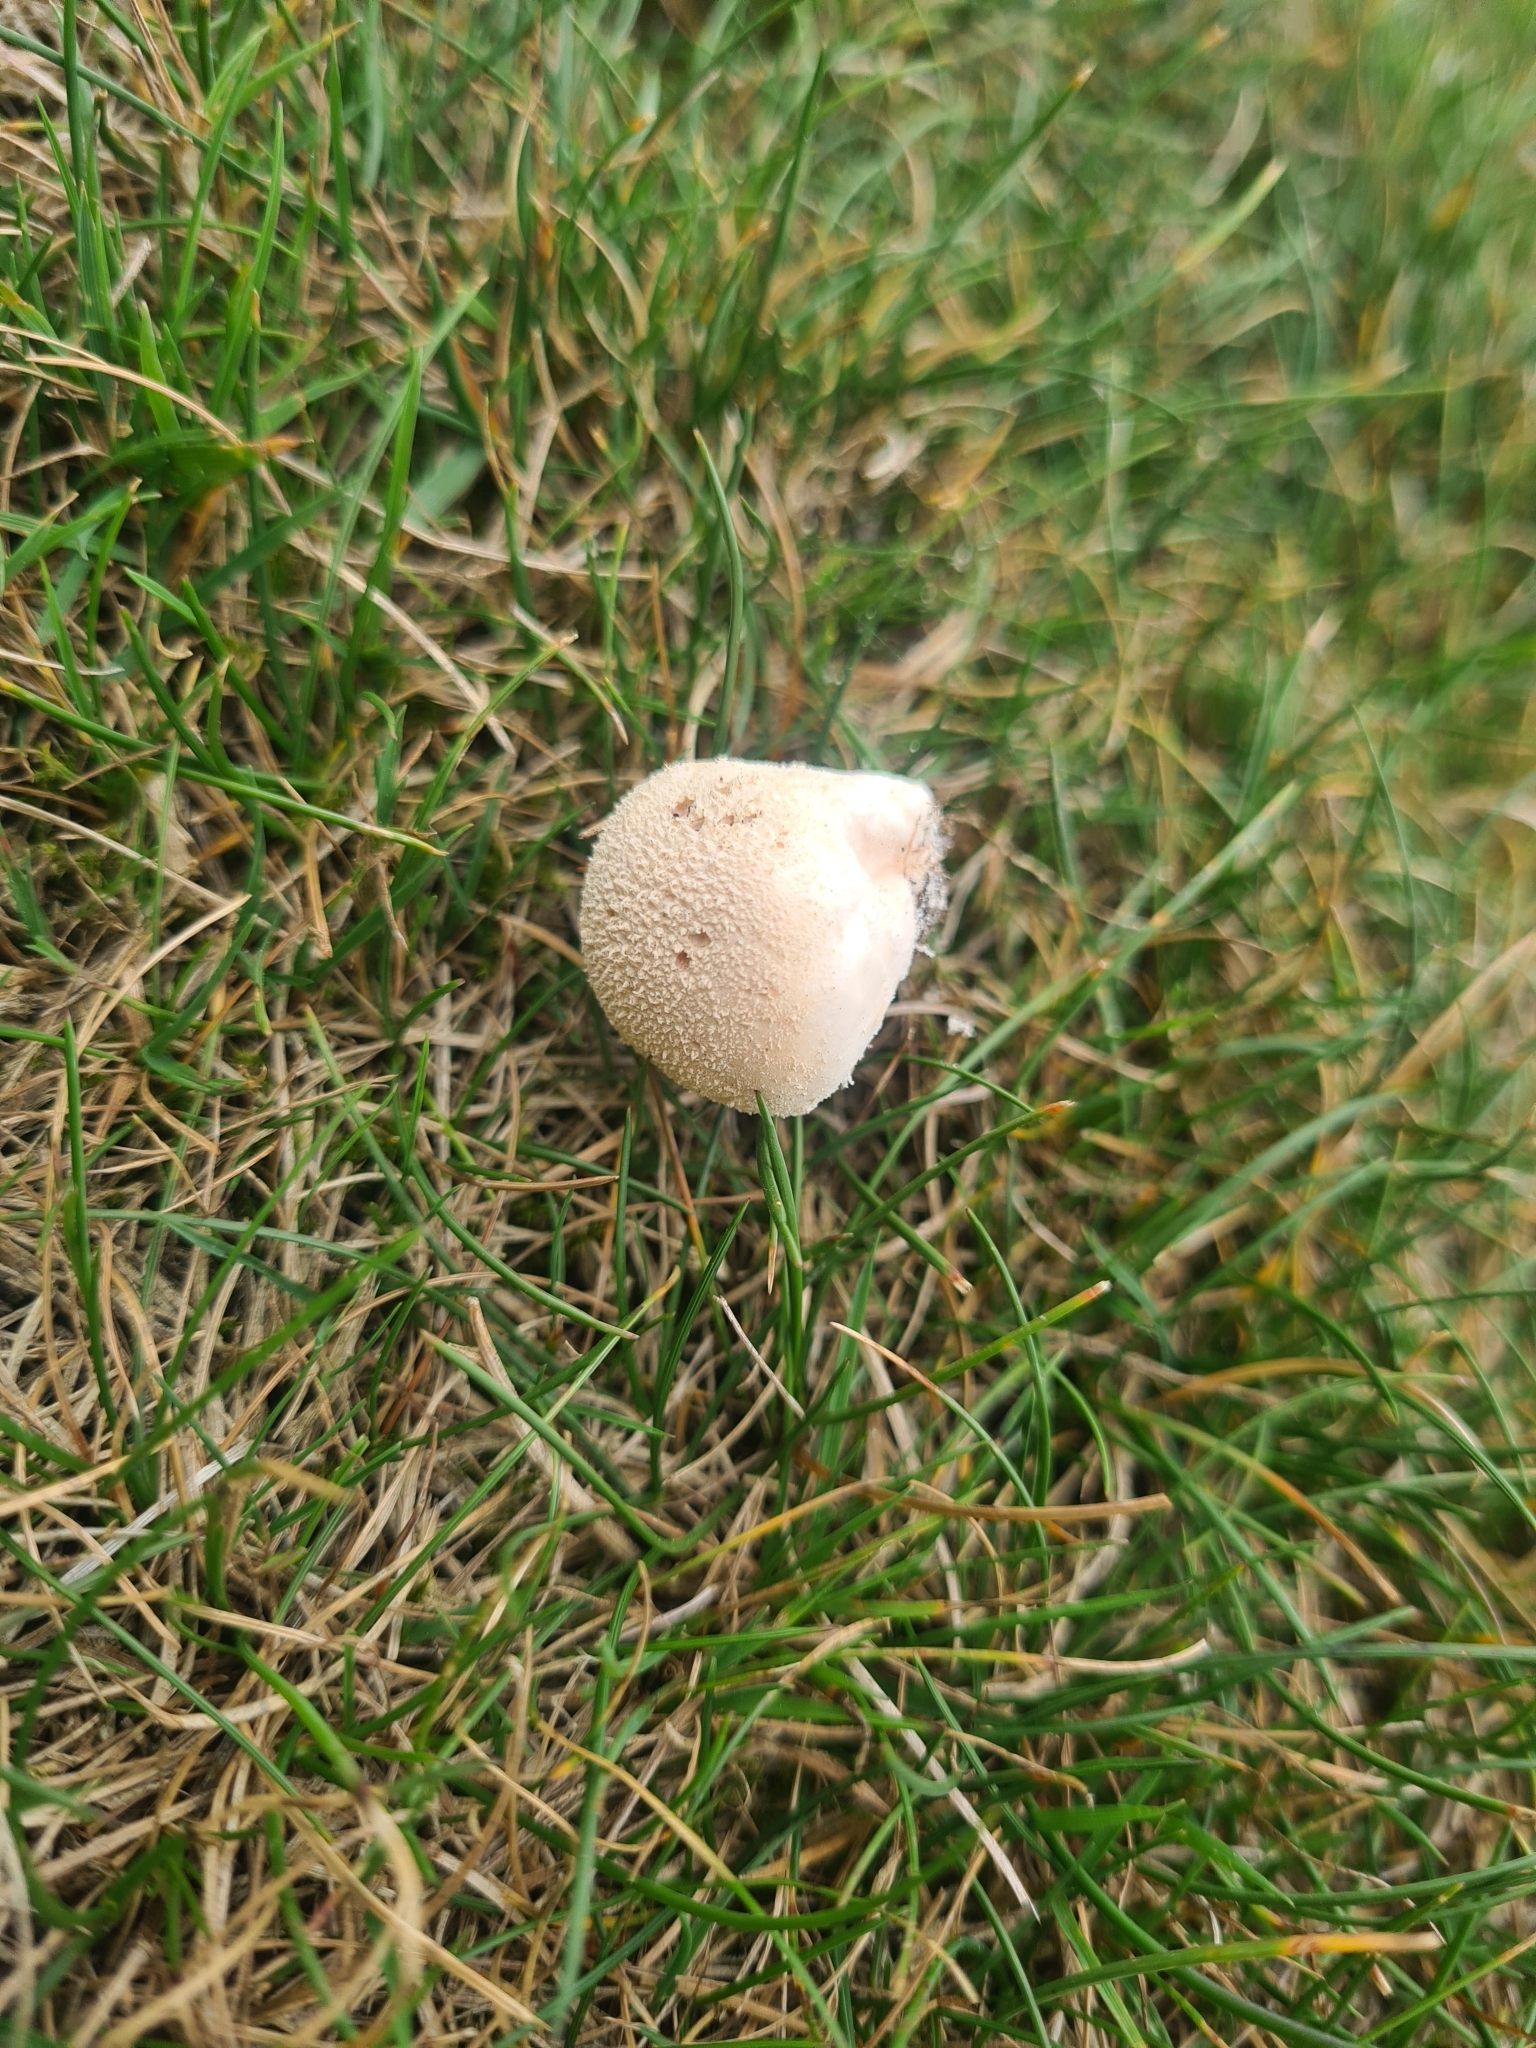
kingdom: Fungi
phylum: Basidiomycota
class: Agaricomycetes
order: Agaricales
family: Lycoperdaceae
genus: Lycoperdon
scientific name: Lycoperdon pratense
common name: Meadow puffball
